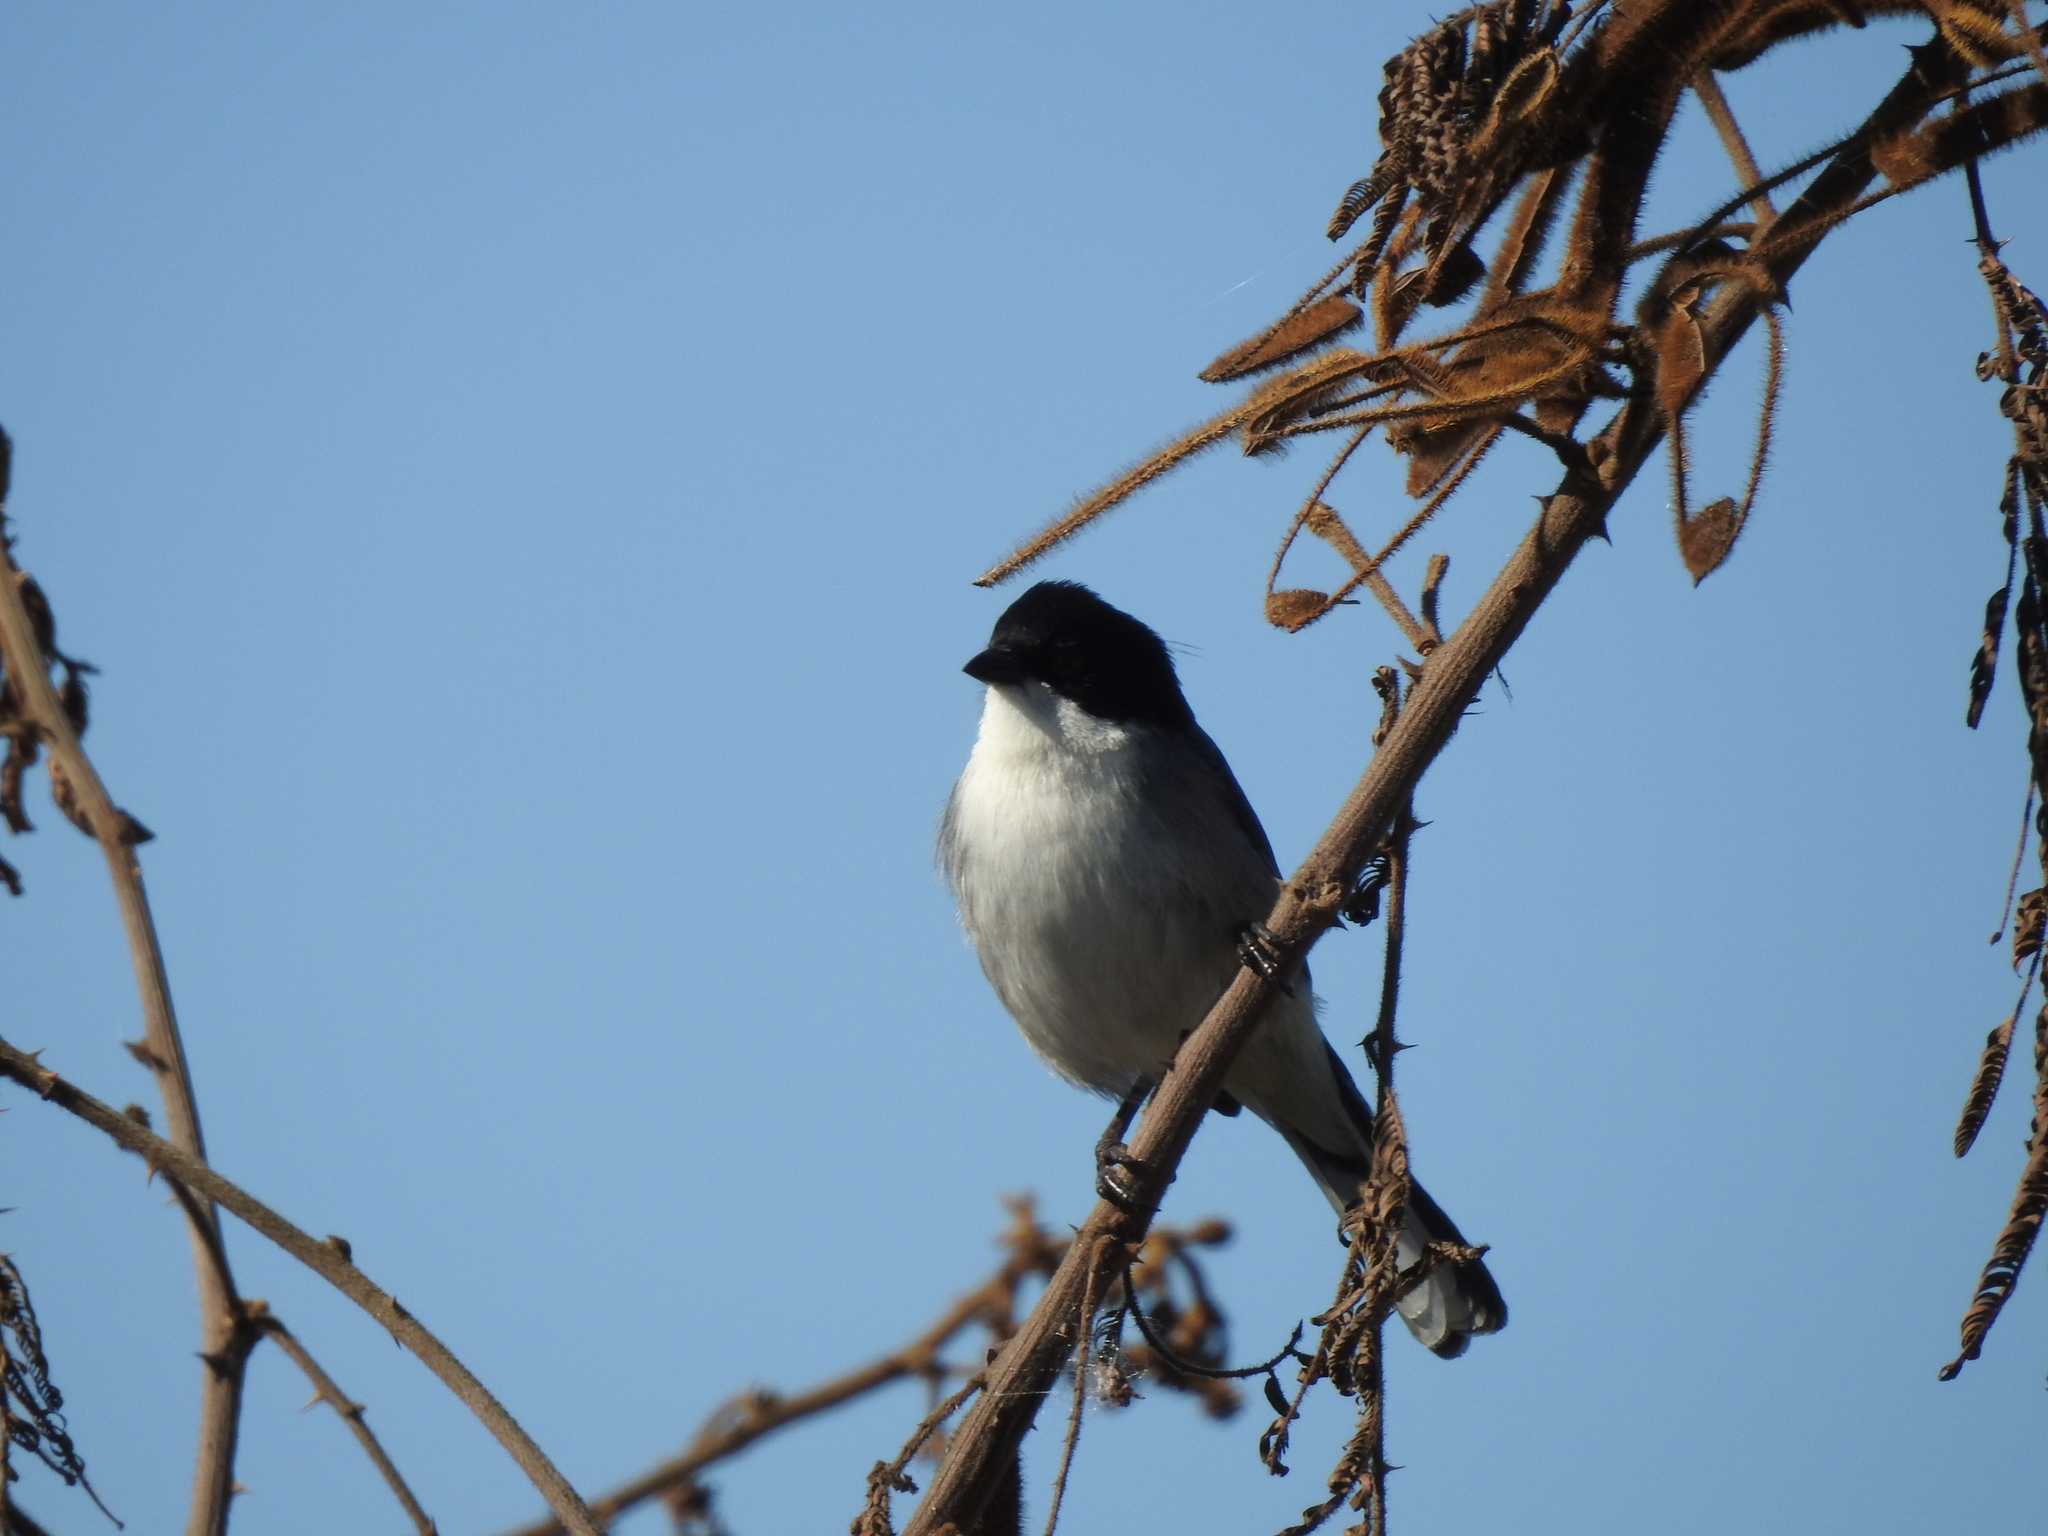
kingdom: Animalia
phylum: Chordata
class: Aves
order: Passeriformes
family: Thraupidae
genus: Microspingus
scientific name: Microspingus melanoleucus
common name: Black-capped warbling-finch
